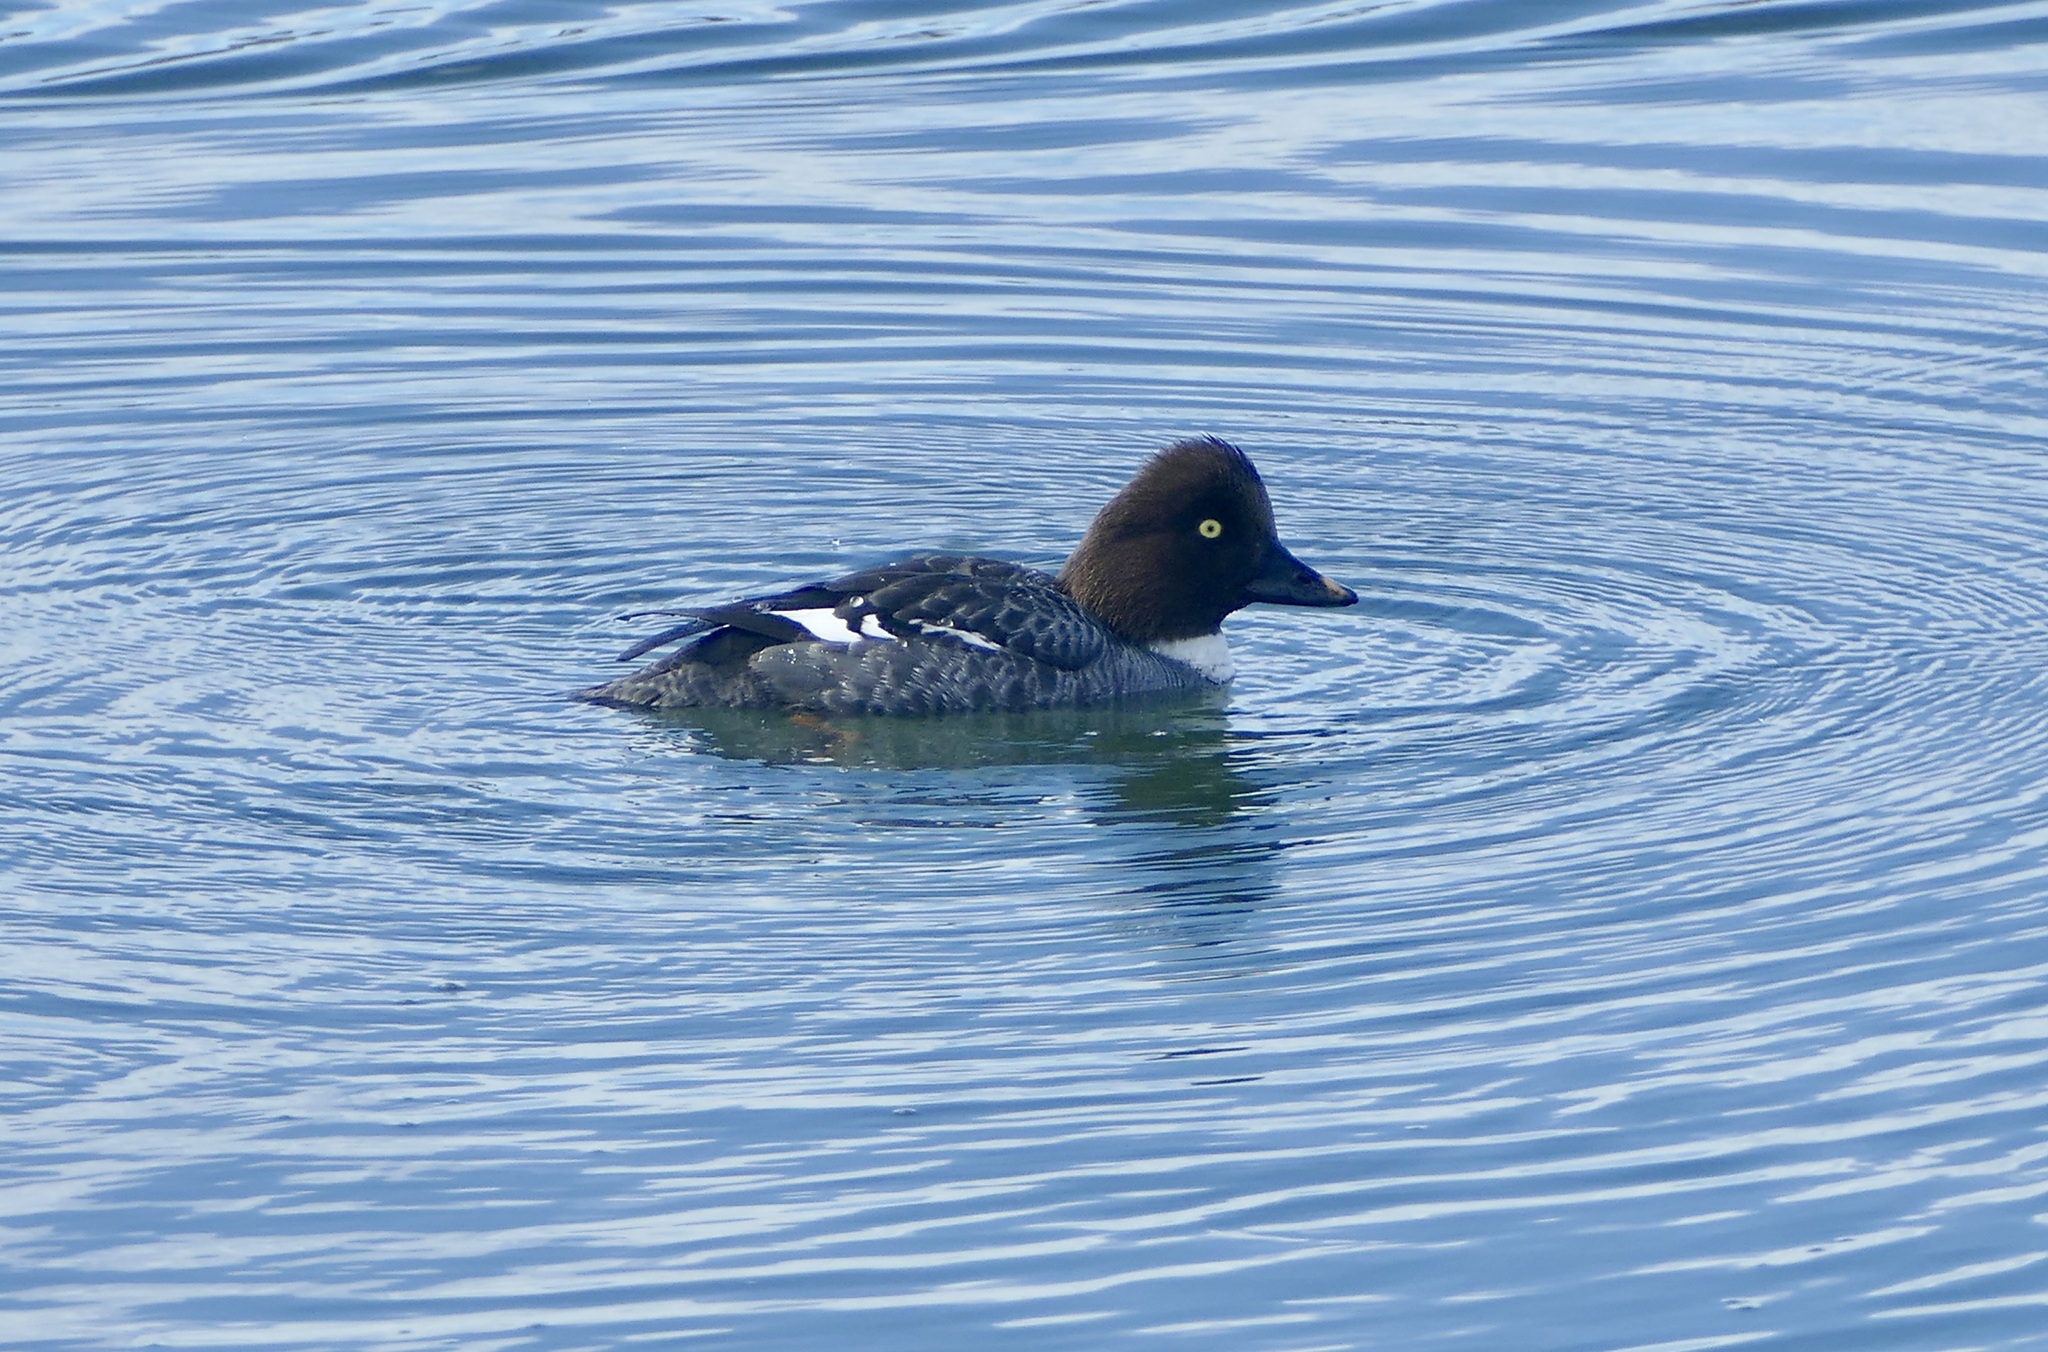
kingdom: Animalia
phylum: Chordata
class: Aves
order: Anseriformes
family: Anatidae
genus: Bucephala
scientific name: Bucephala clangula
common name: Common goldeneye
